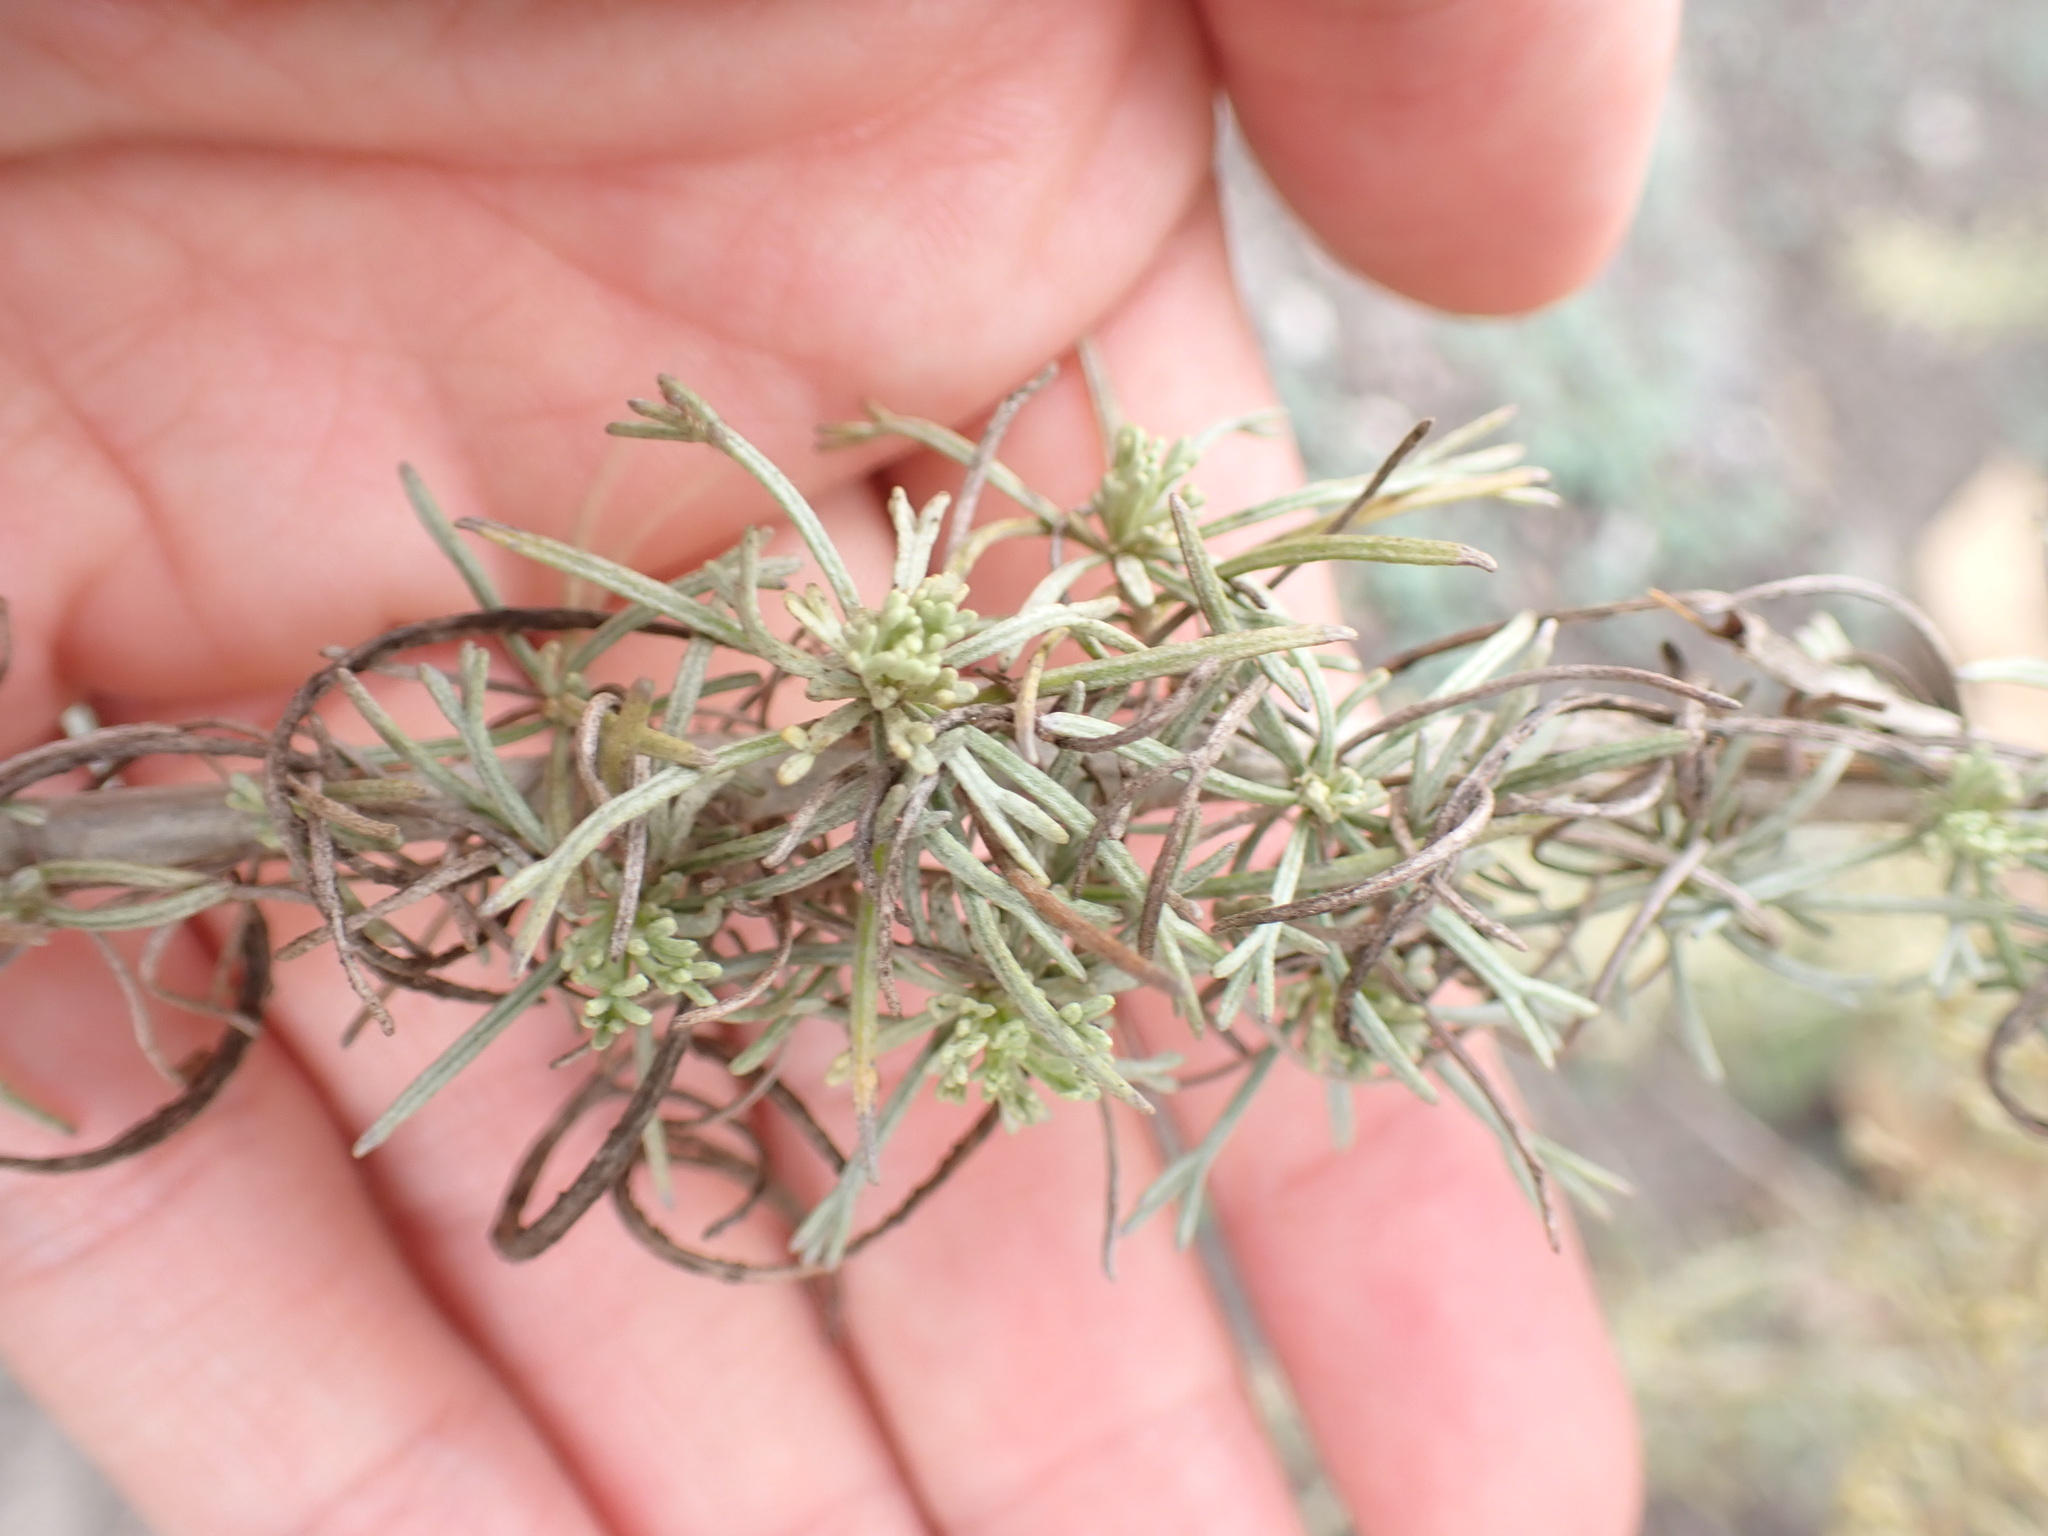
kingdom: Plantae
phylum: Tracheophyta
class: Magnoliopsida
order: Asterales
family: Asteraceae
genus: Artemisia
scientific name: Artemisia californica
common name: California sagebrush
